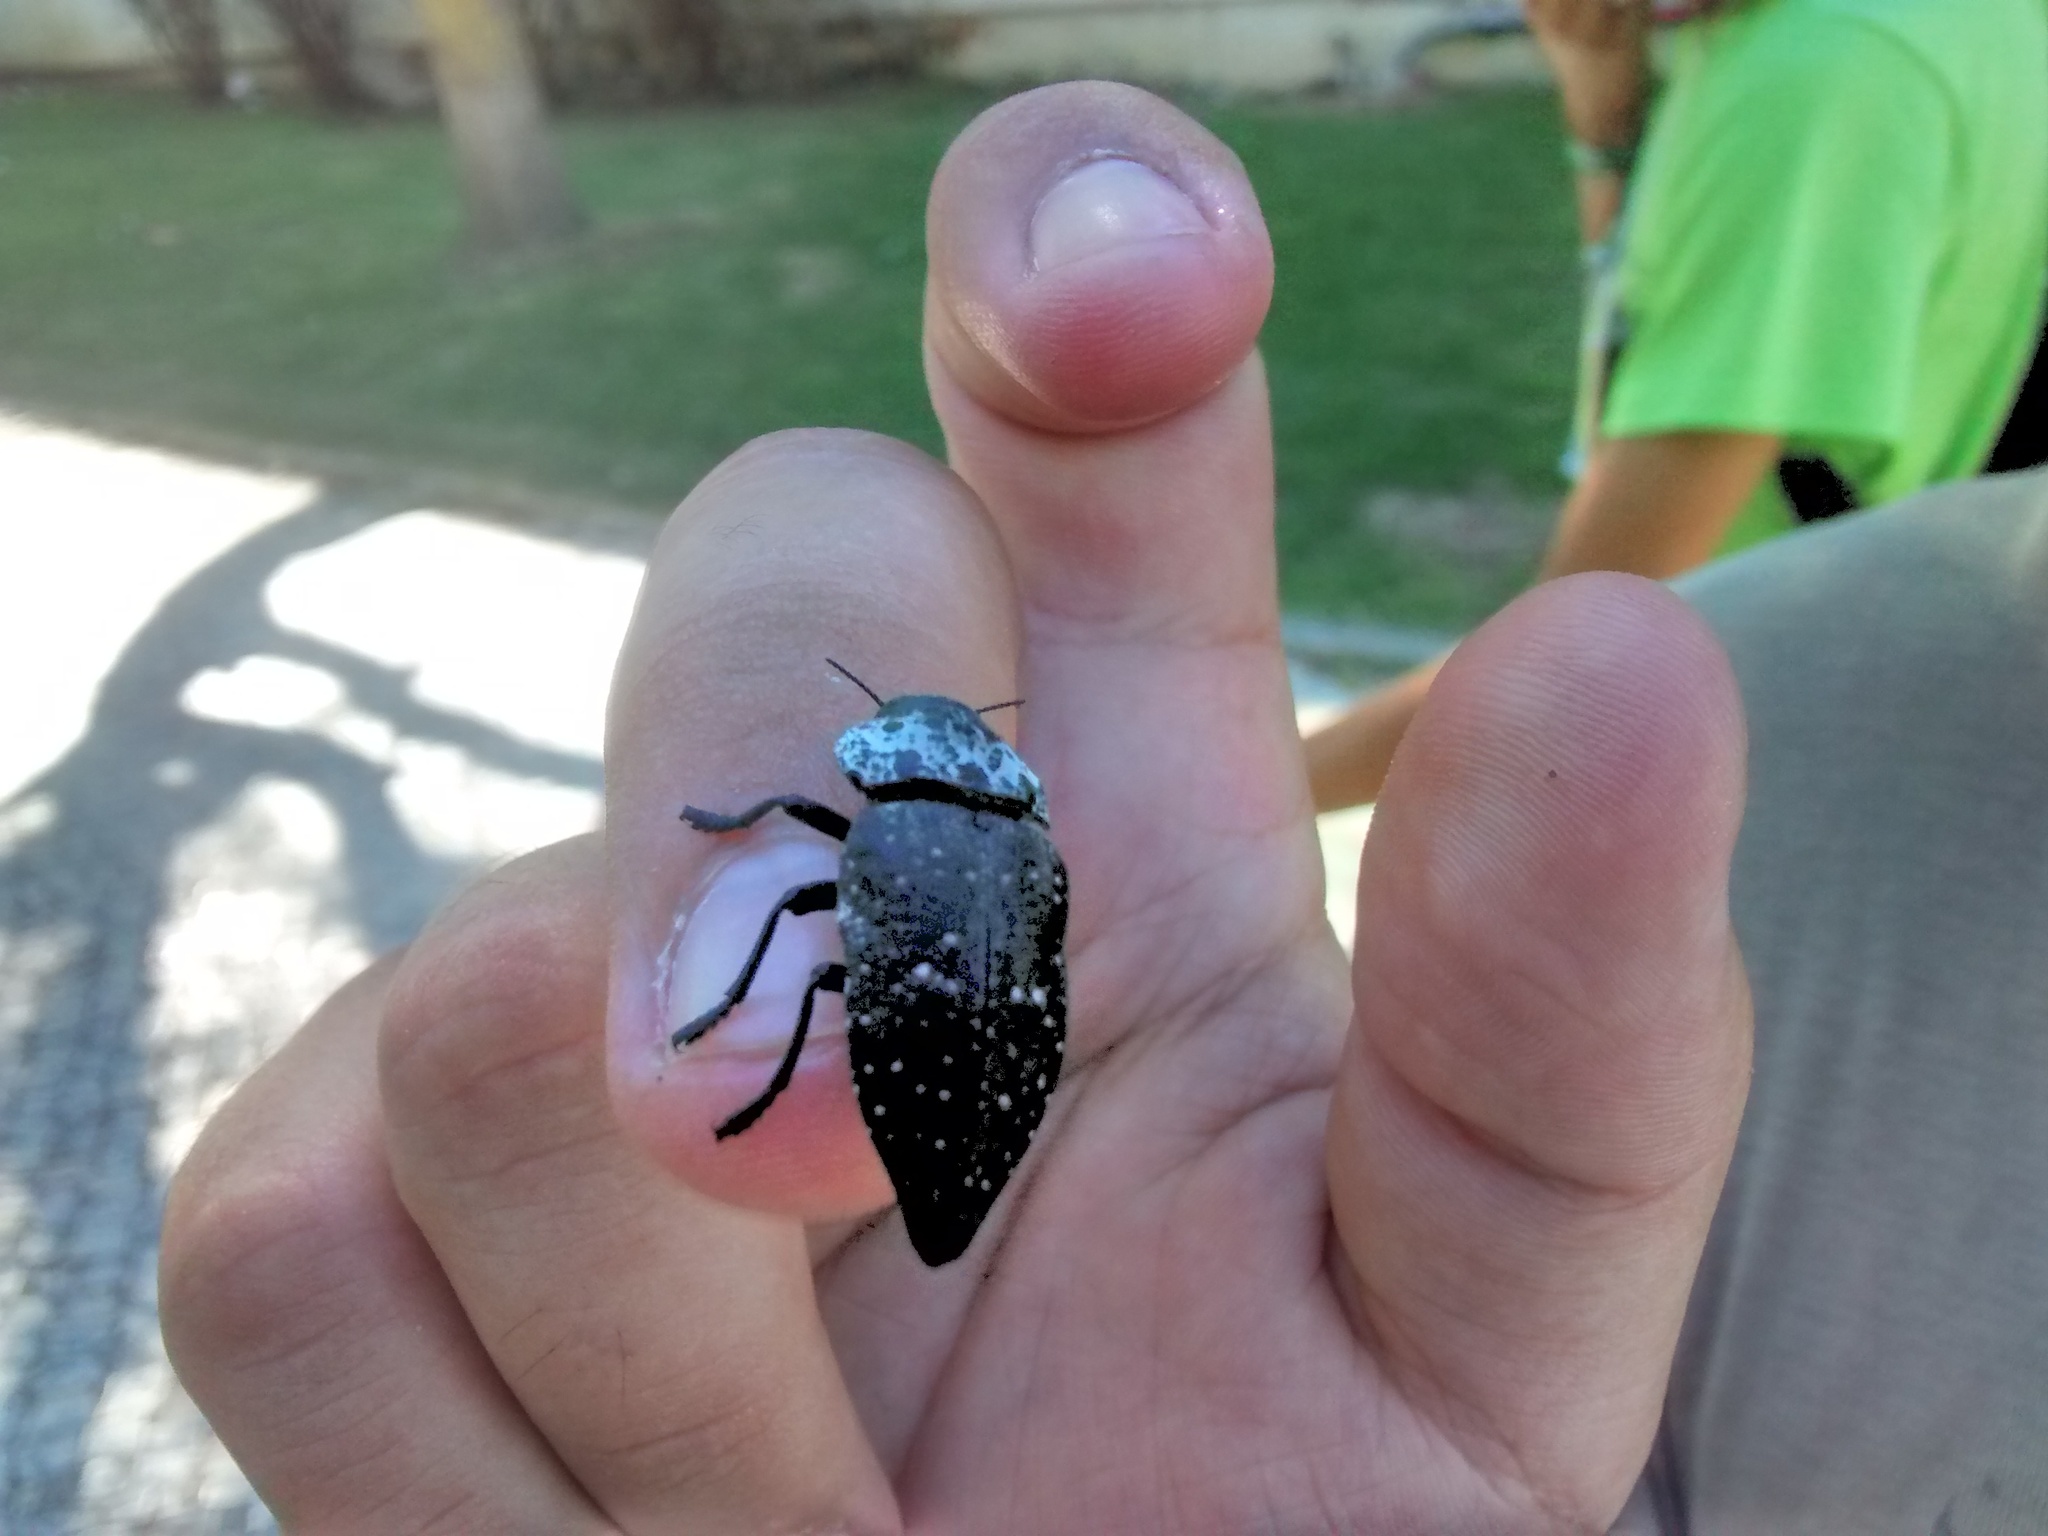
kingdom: Animalia
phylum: Arthropoda
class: Insecta
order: Coleoptera
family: Buprestidae
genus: Capnodis
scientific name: Capnodis tenebrionis
